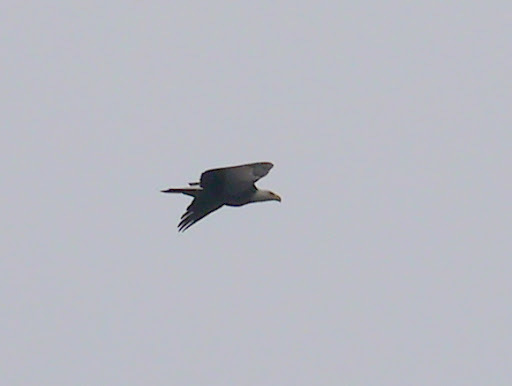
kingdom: Animalia
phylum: Chordata
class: Aves
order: Accipitriformes
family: Accipitridae
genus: Haliaeetus
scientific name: Haliaeetus leucocephalus
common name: Bald eagle
